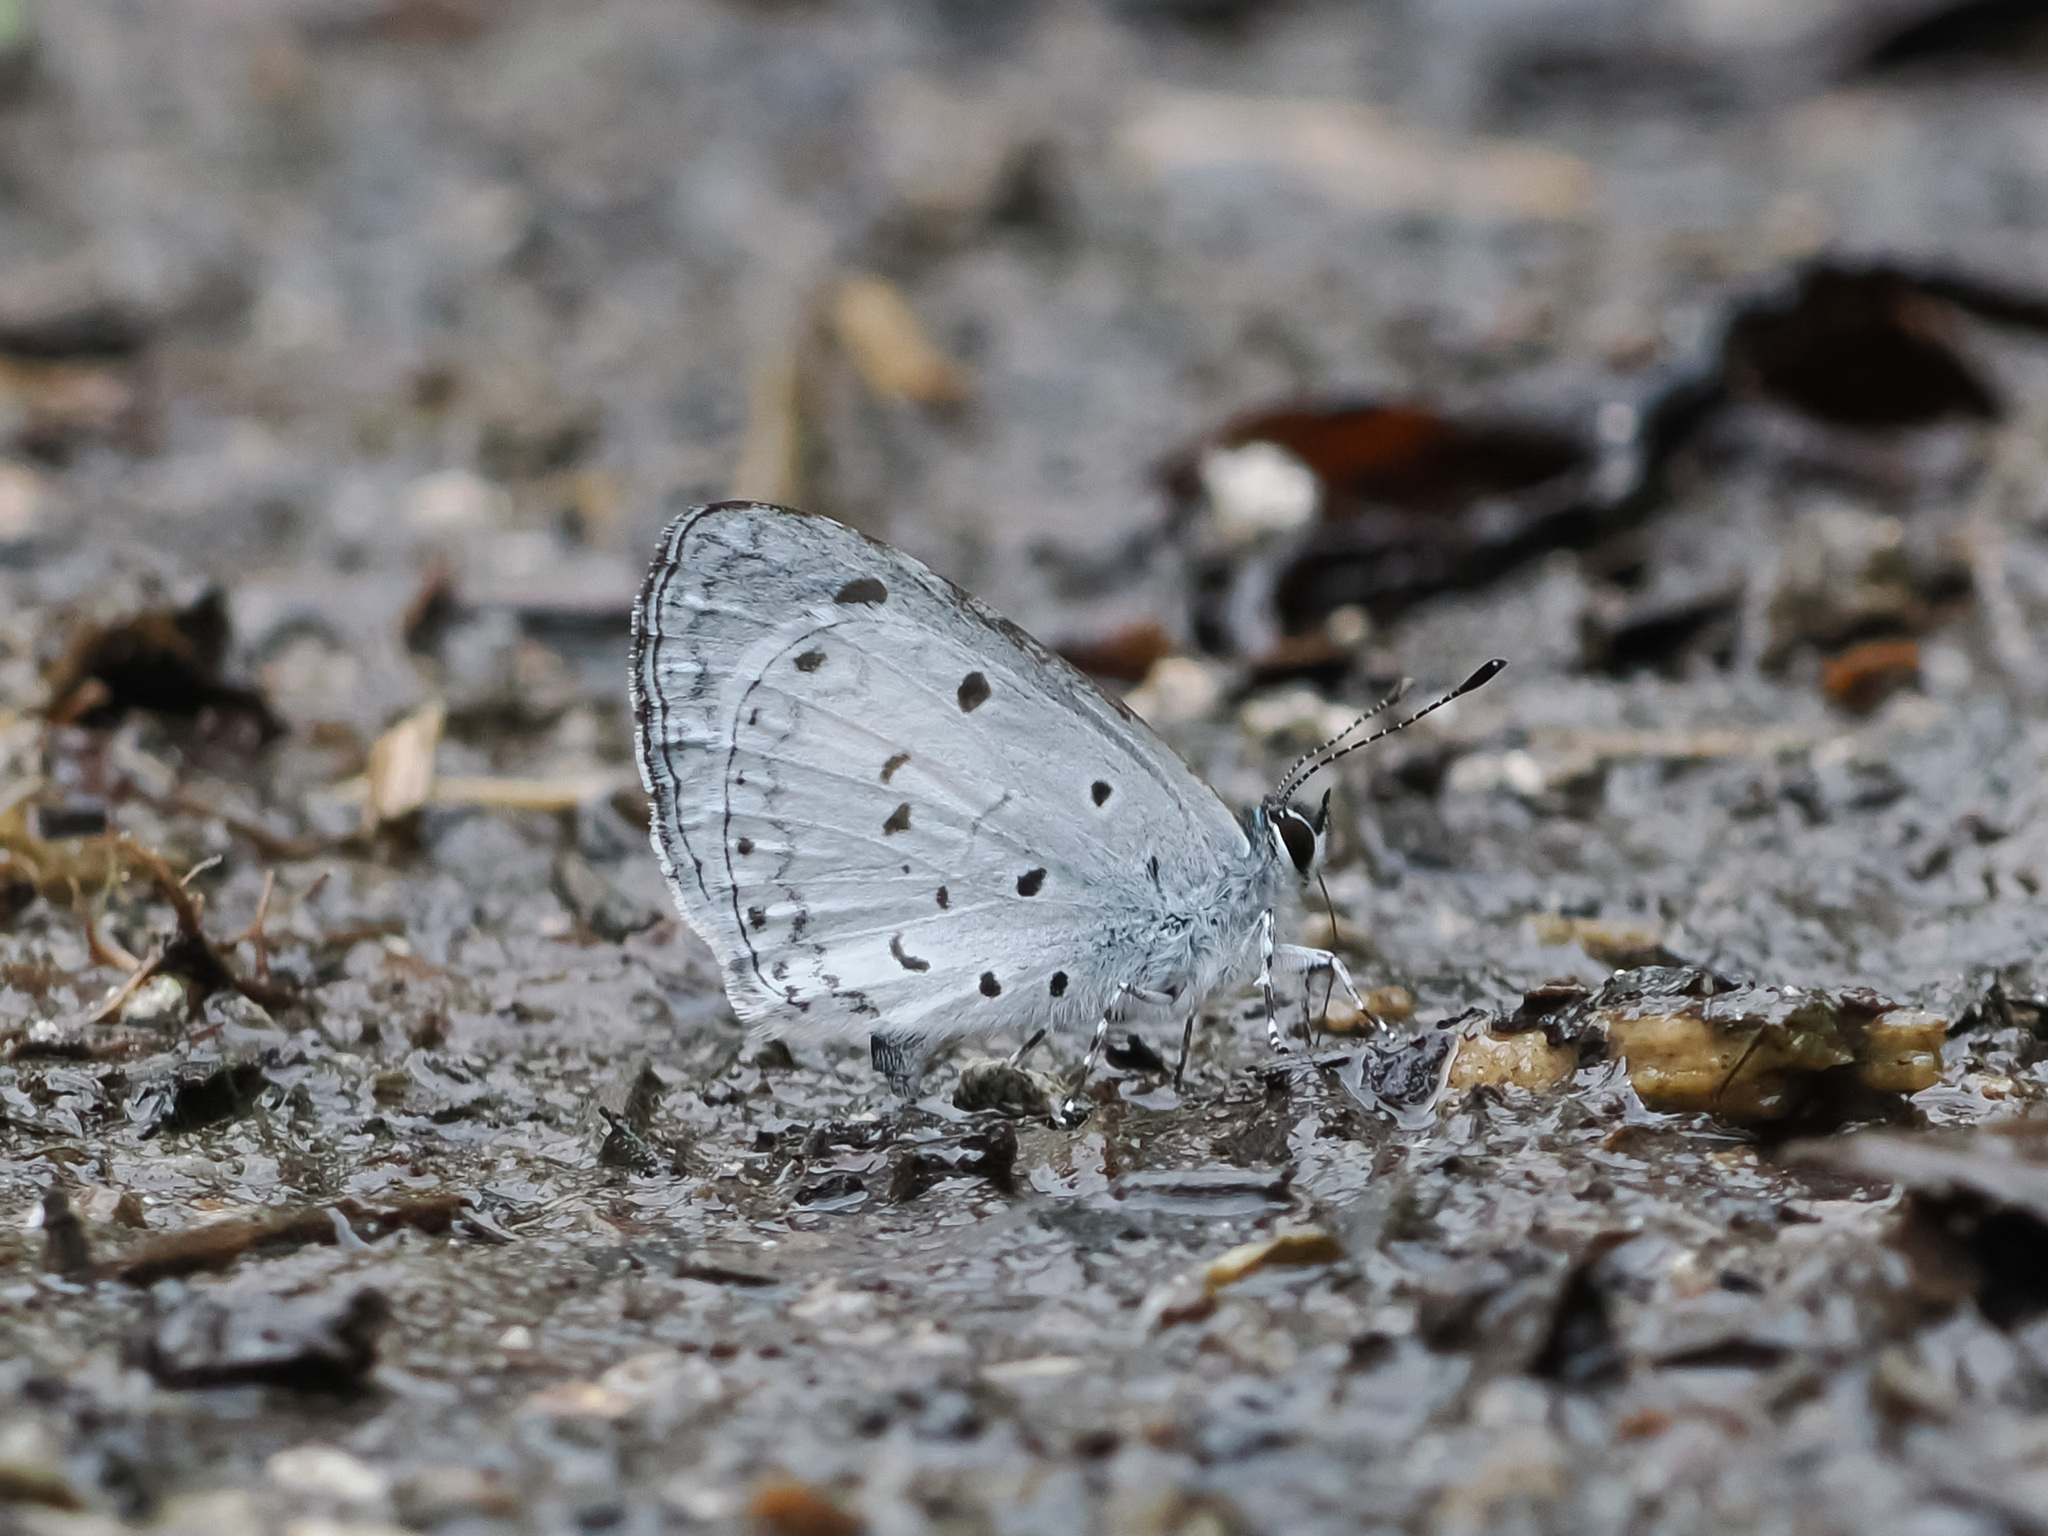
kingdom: Animalia
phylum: Arthropoda
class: Insecta
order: Lepidoptera
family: Lycaenidae
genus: Celatoxia
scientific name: Celatoxia
